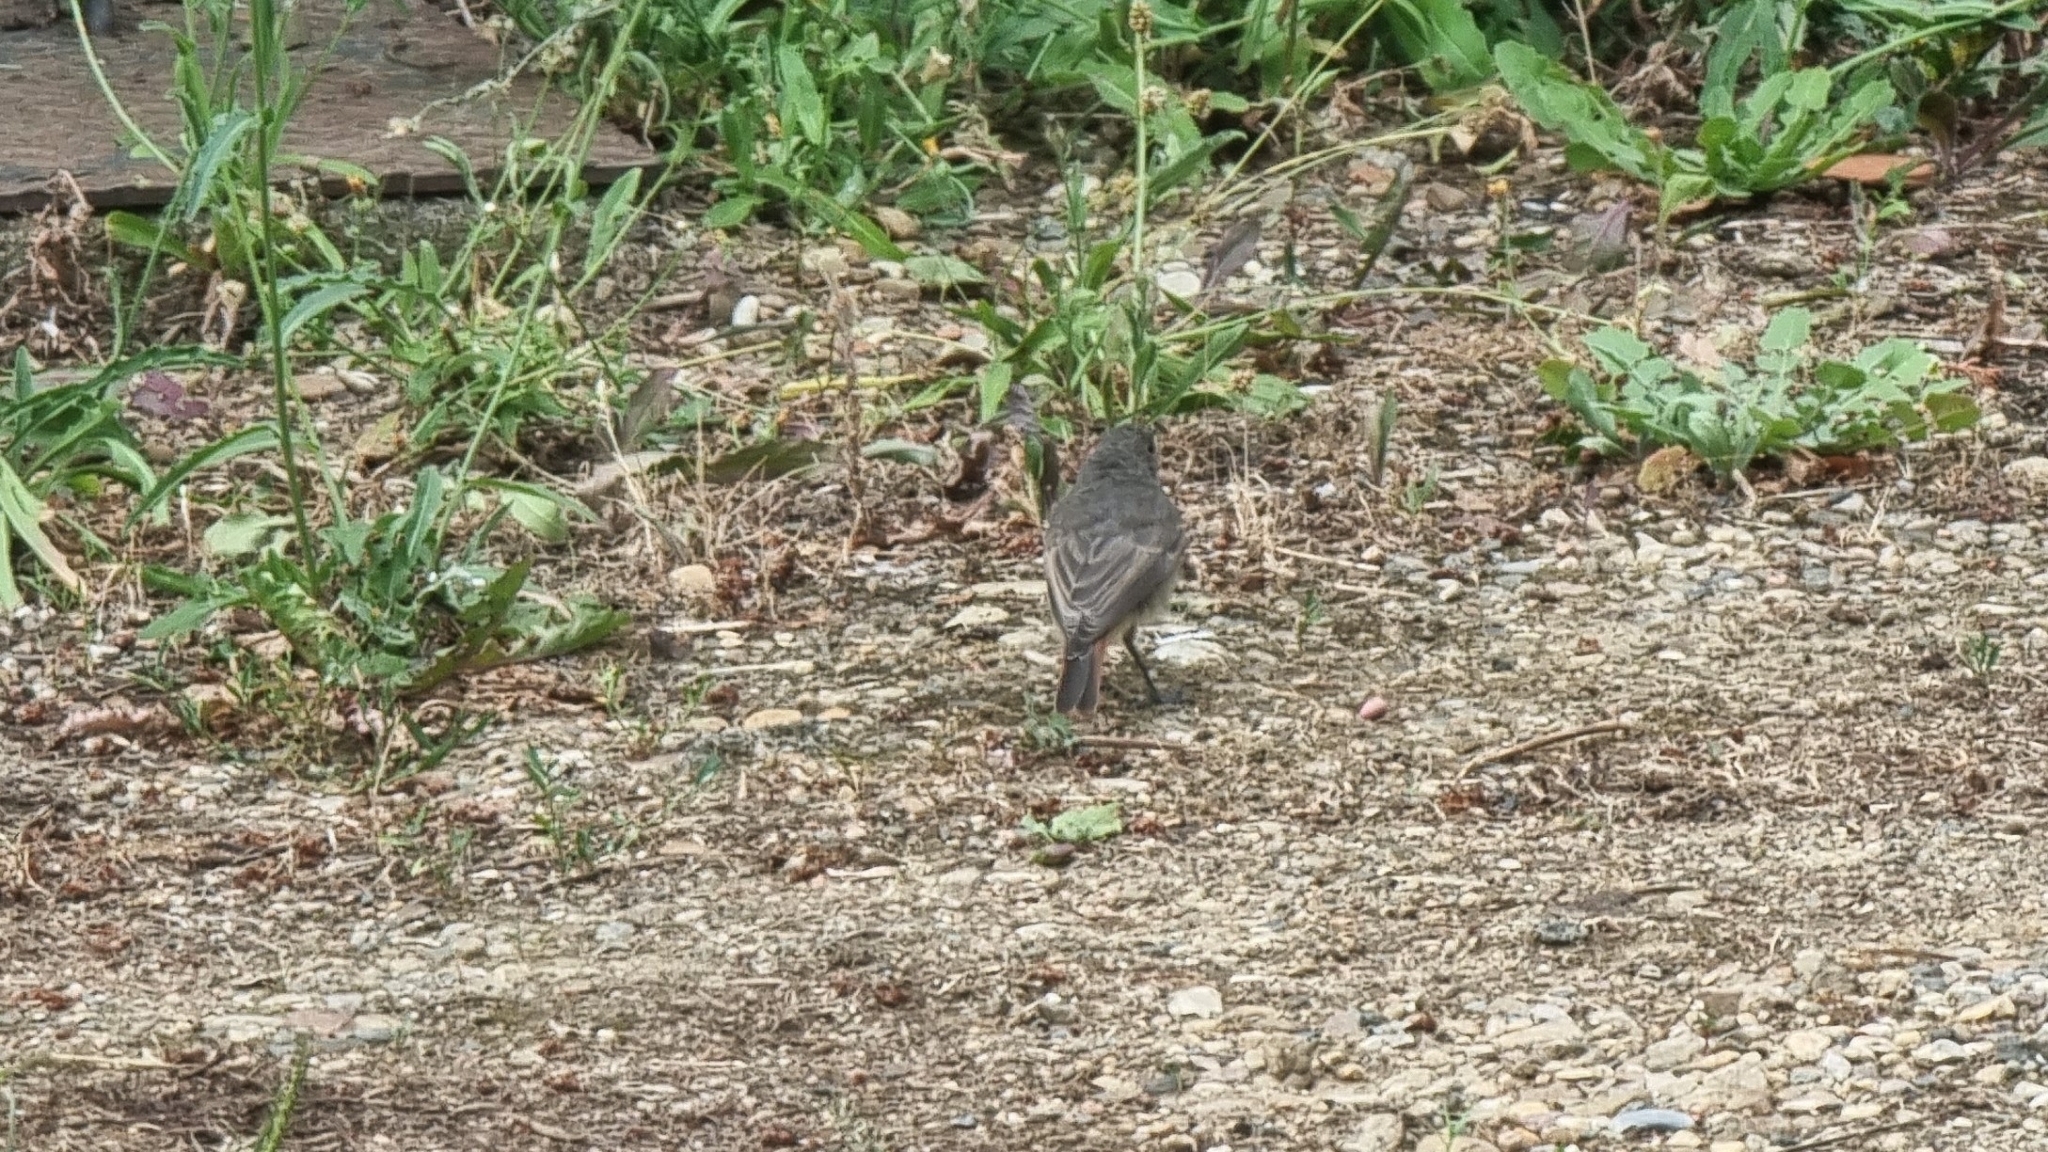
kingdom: Animalia
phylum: Chordata
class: Aves
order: Passeriformes
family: Muscicapidae
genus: Phoenicurus
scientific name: Phoenicurus ochruros
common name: Black redstart
